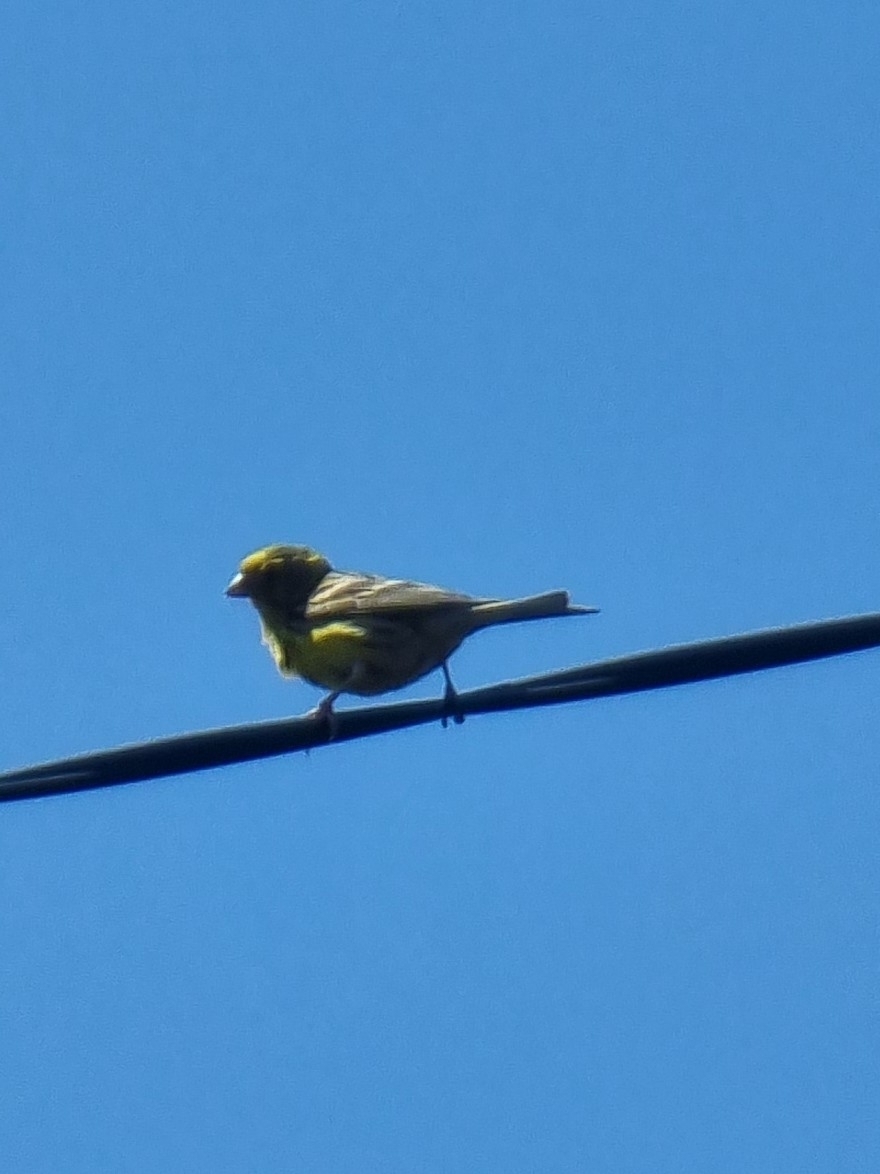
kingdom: Animalia
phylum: Chordata
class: Aves
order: Passeriformes
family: Fringillidae
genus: Serinus
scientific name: Serinus canaria
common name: Atlantic canary
